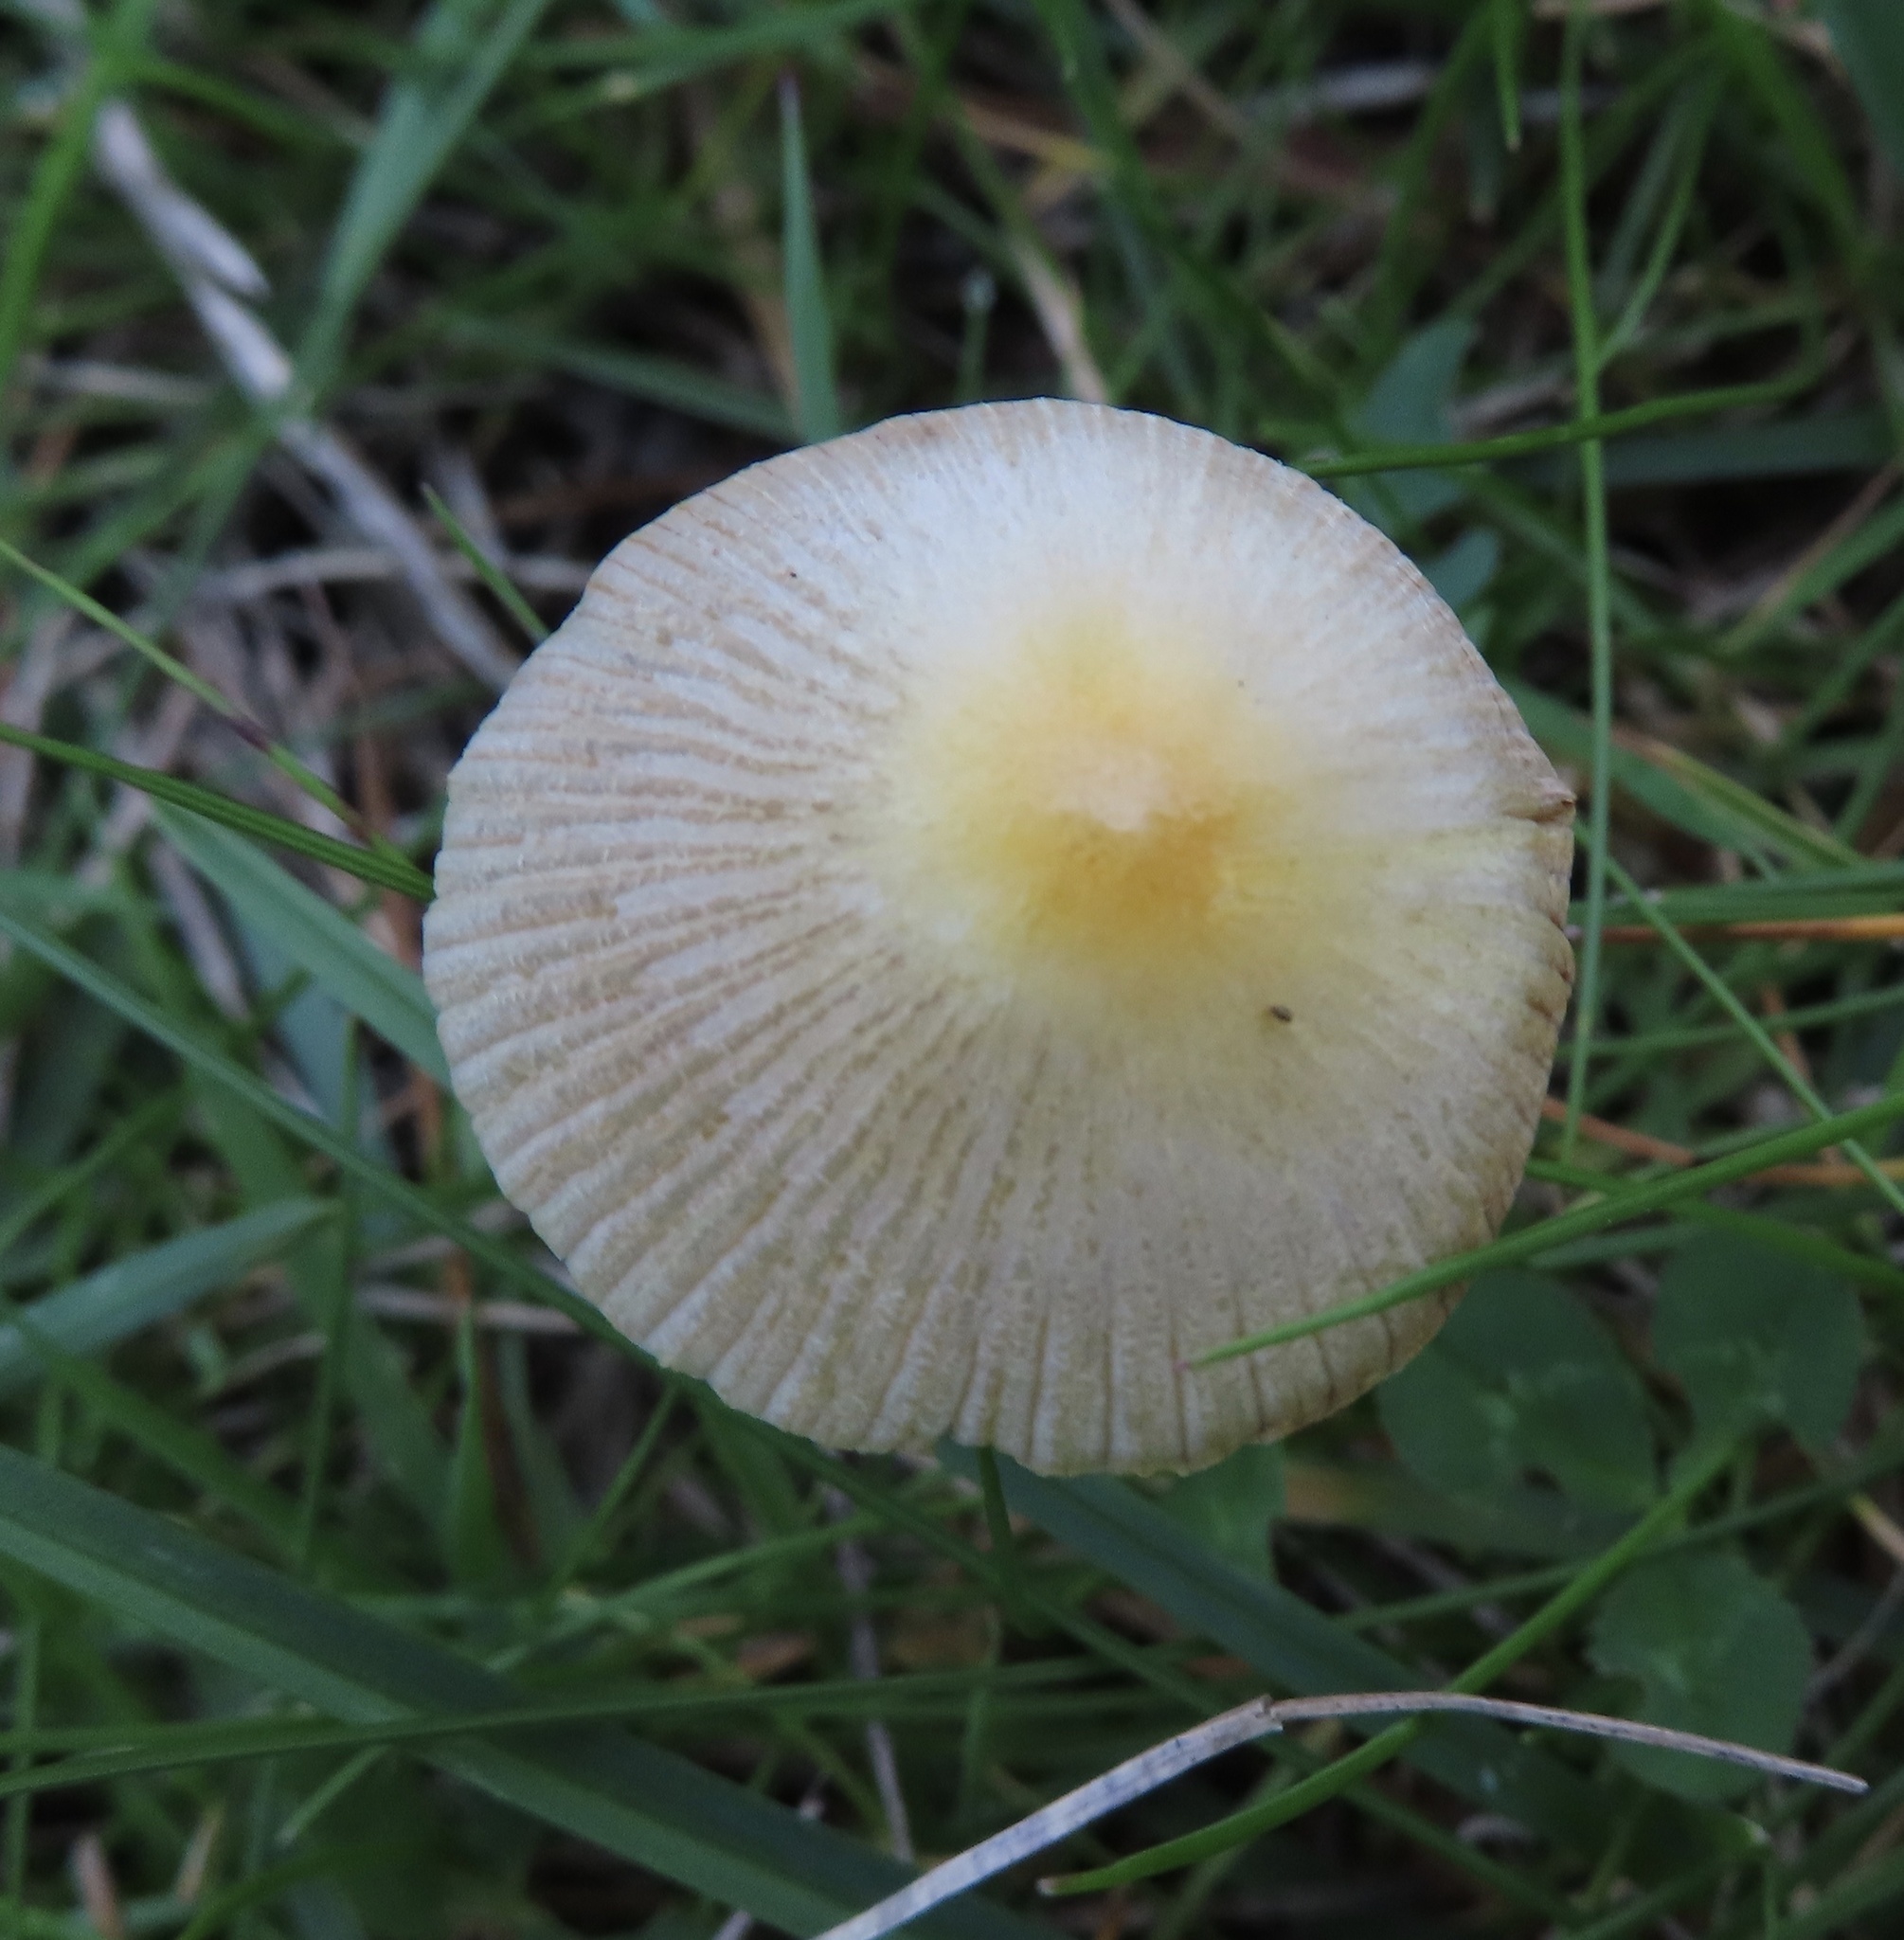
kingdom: Fungi
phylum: Basidiomycota
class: Agaricomycetes
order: Agaricales
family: Bolbitiaceae
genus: Bolbitius
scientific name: Bolbitius titubans
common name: Yellow fieldcap
